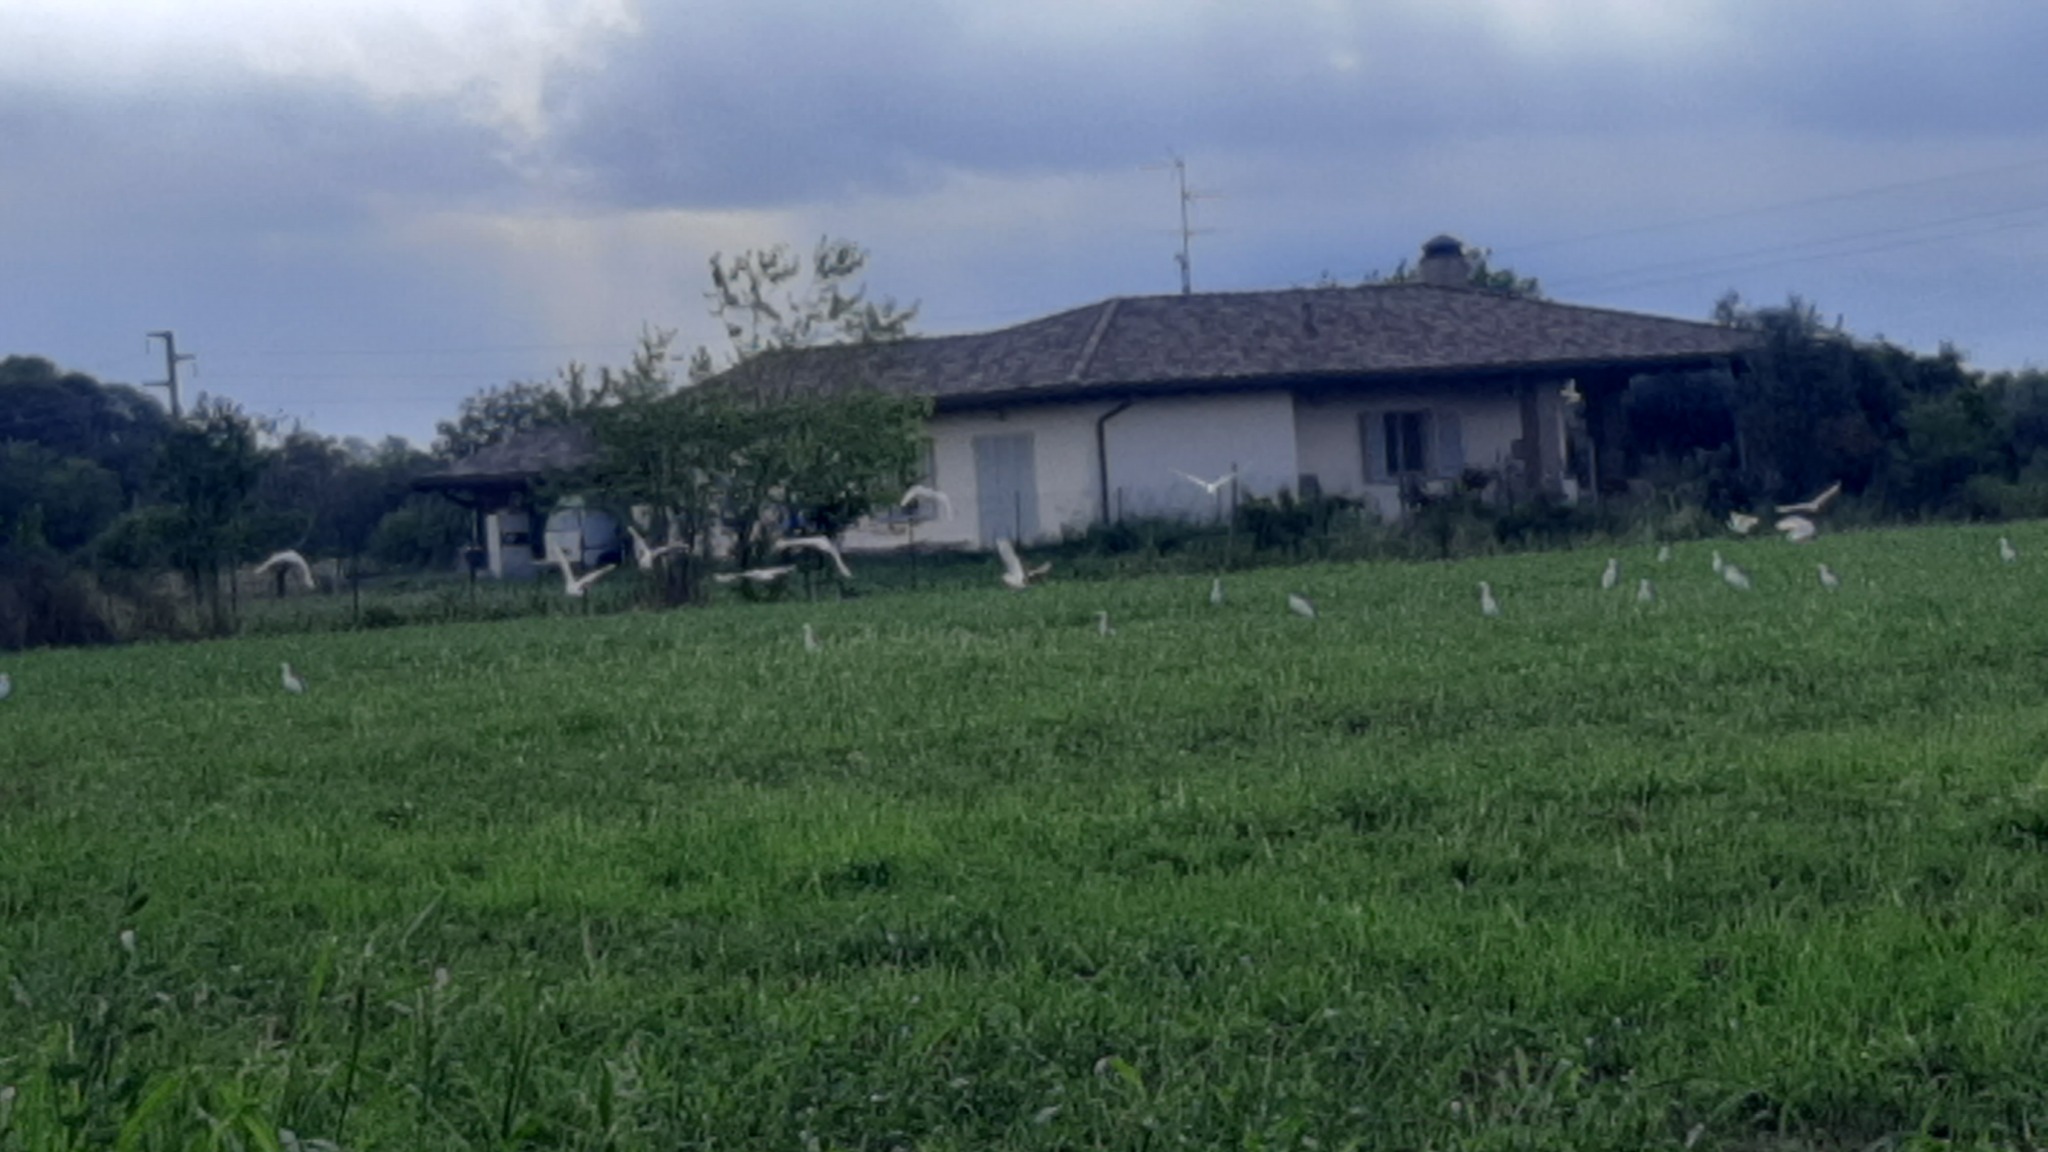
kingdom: Animalia
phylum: Chordata
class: Aves
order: Pelecaniformes
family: Ardeidae
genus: Bubulcus
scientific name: Bubulcus ibis
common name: Cattle egret
